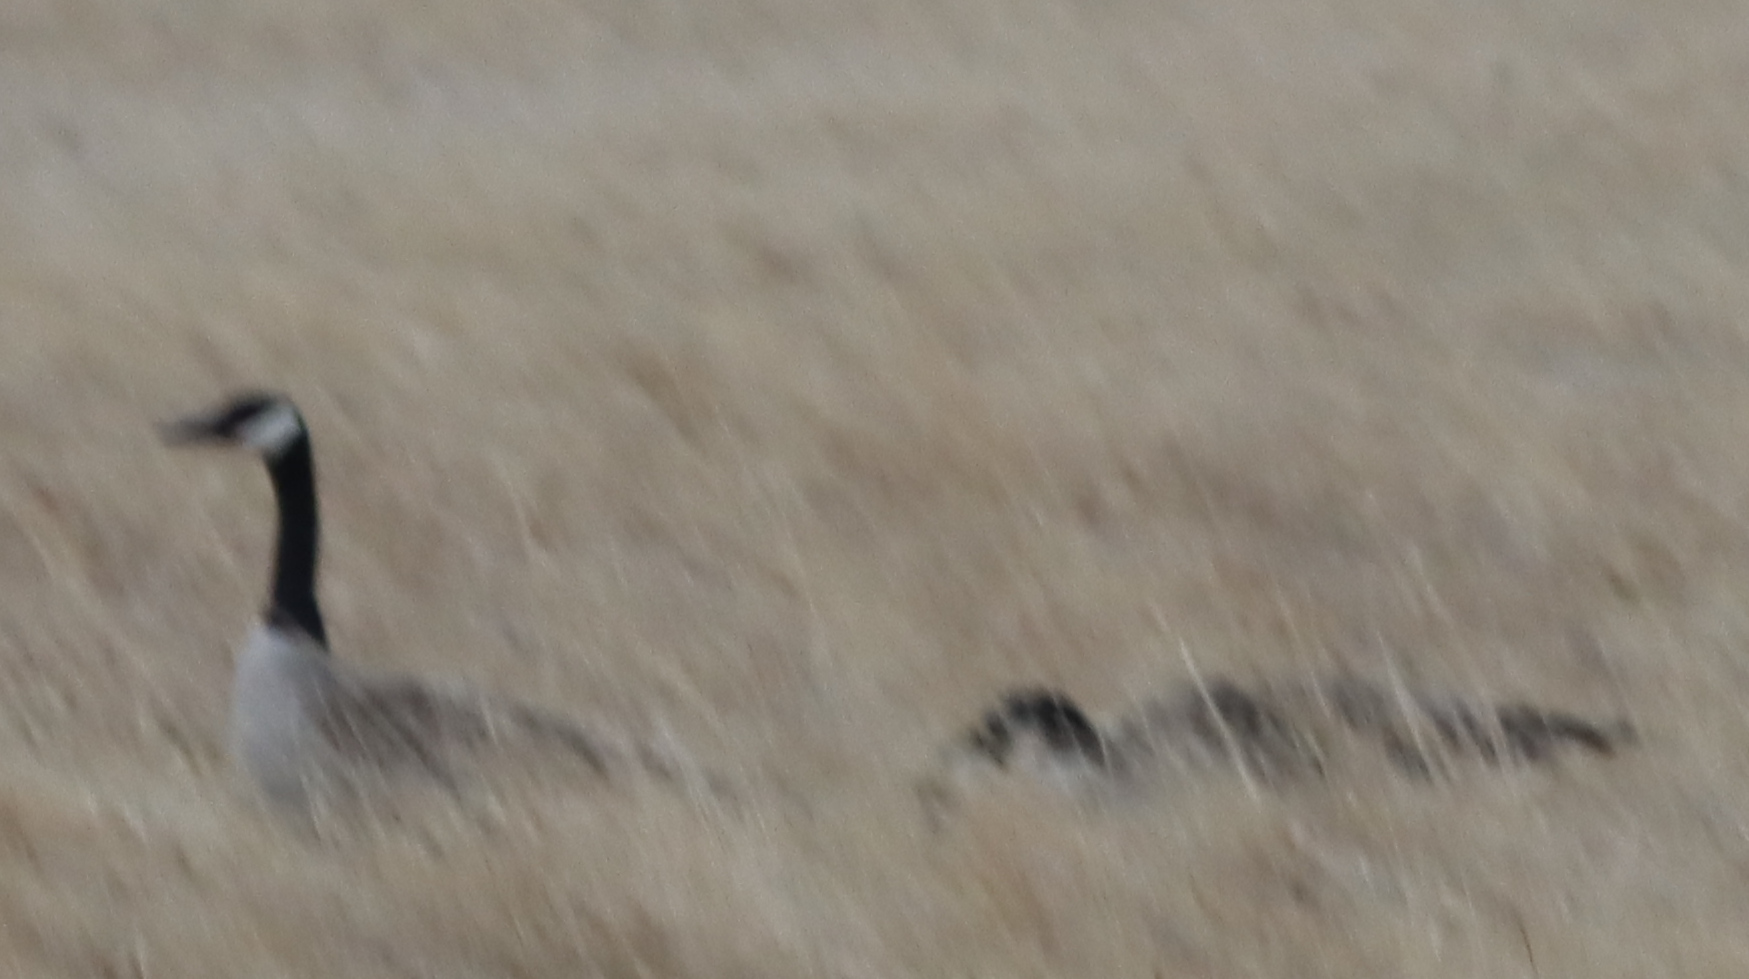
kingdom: Animalia
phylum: Chordata
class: Aves
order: Anseriformes
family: Anatidae
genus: Branta
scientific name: Branta canadensis
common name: Canada goose
